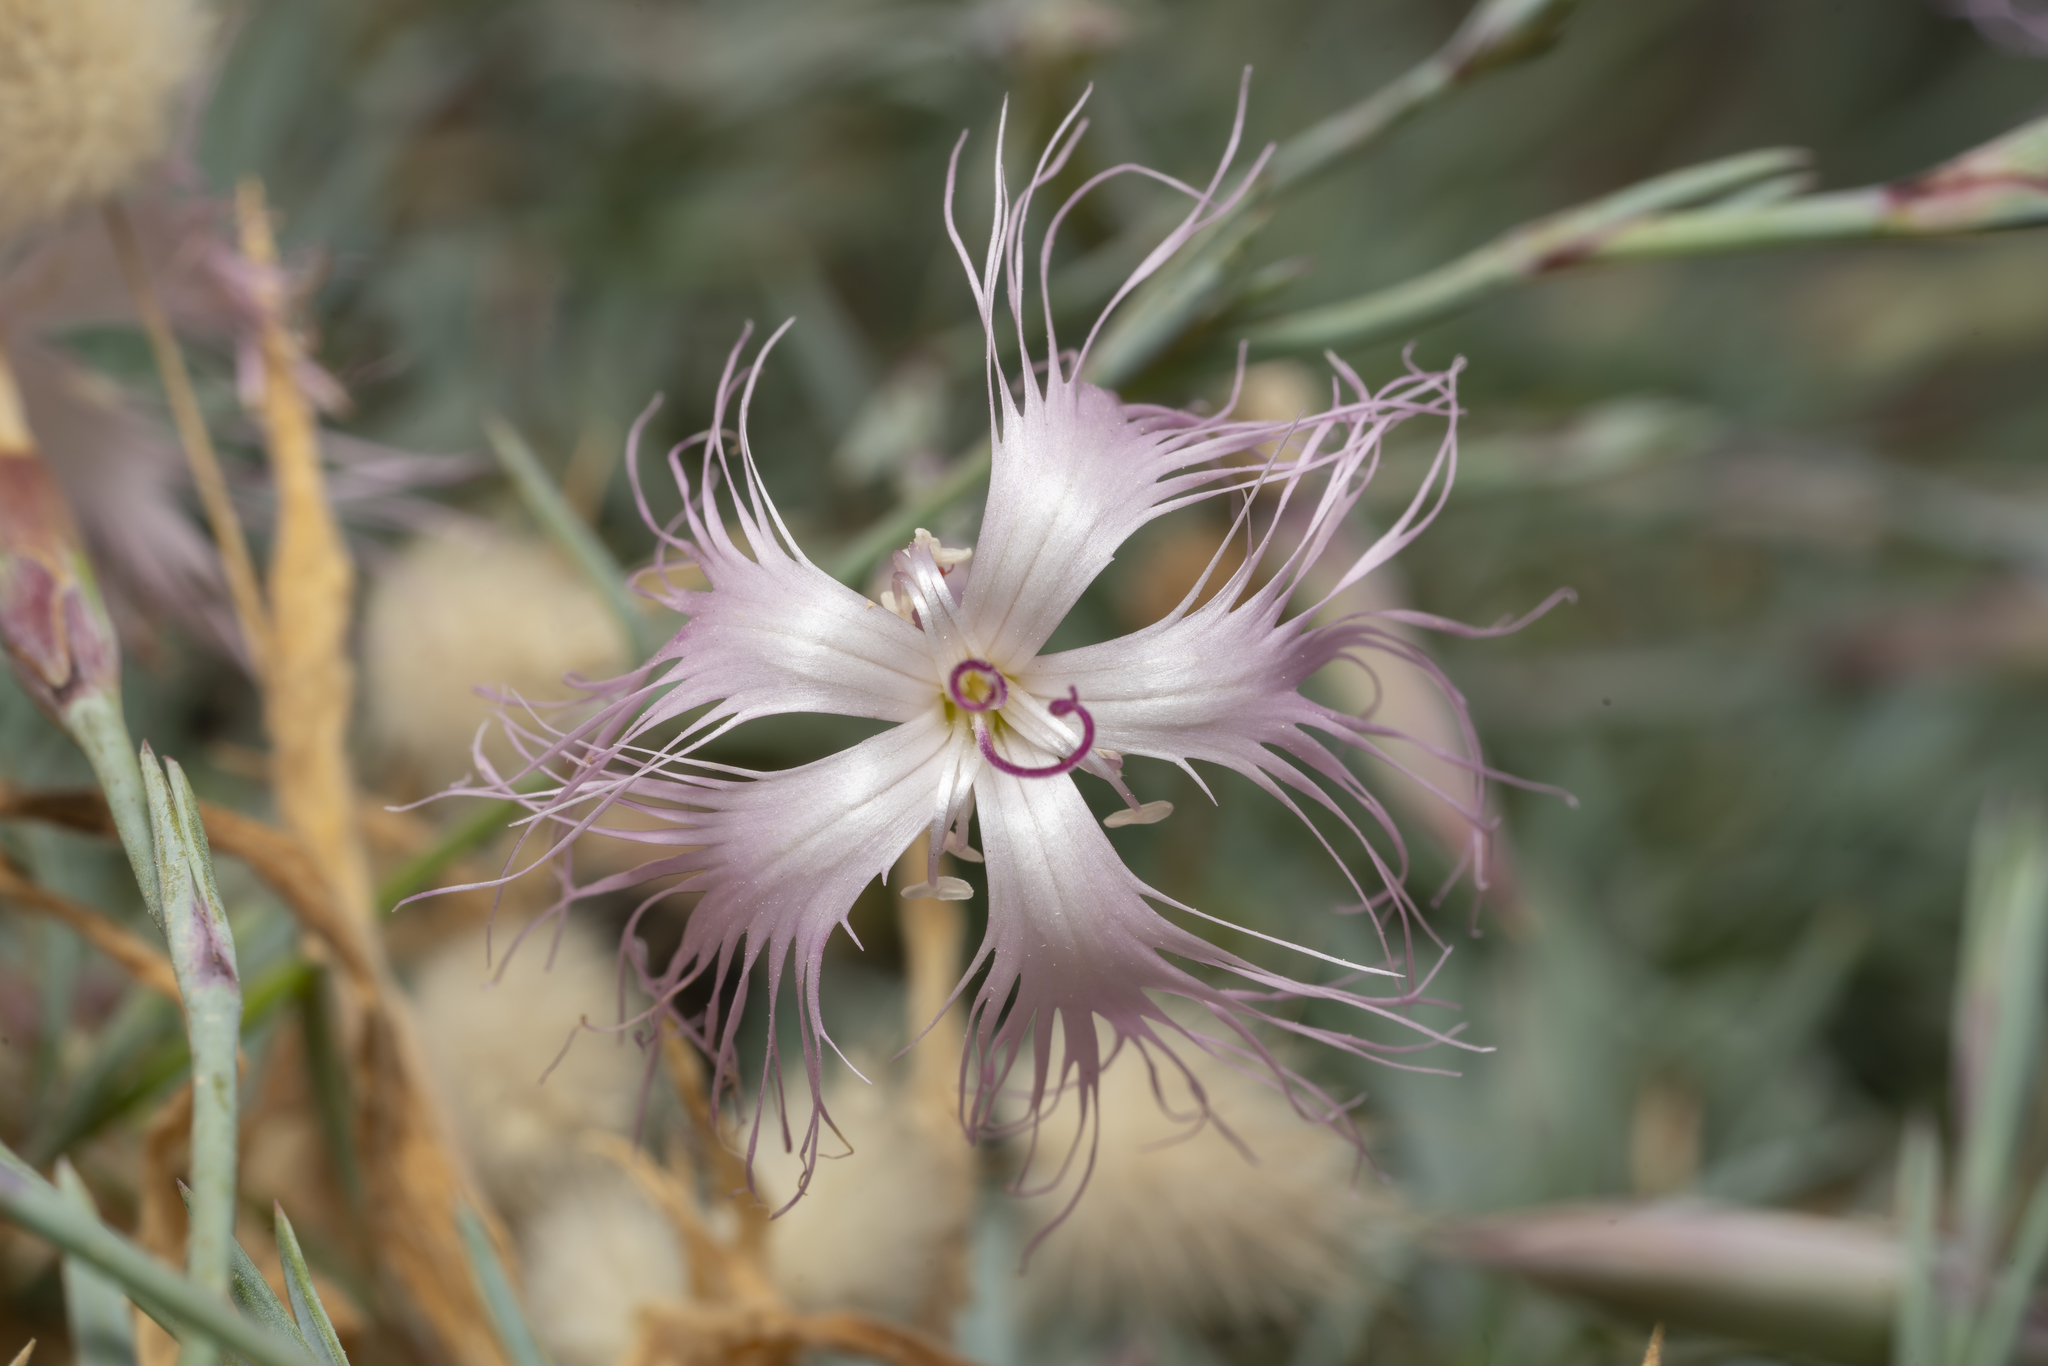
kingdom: Plantae
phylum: Tracheophyta
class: Magnoliopsida
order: Caryophyllales
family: Caryophyllaceae
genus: Dianthus
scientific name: Dianthus crinitus
